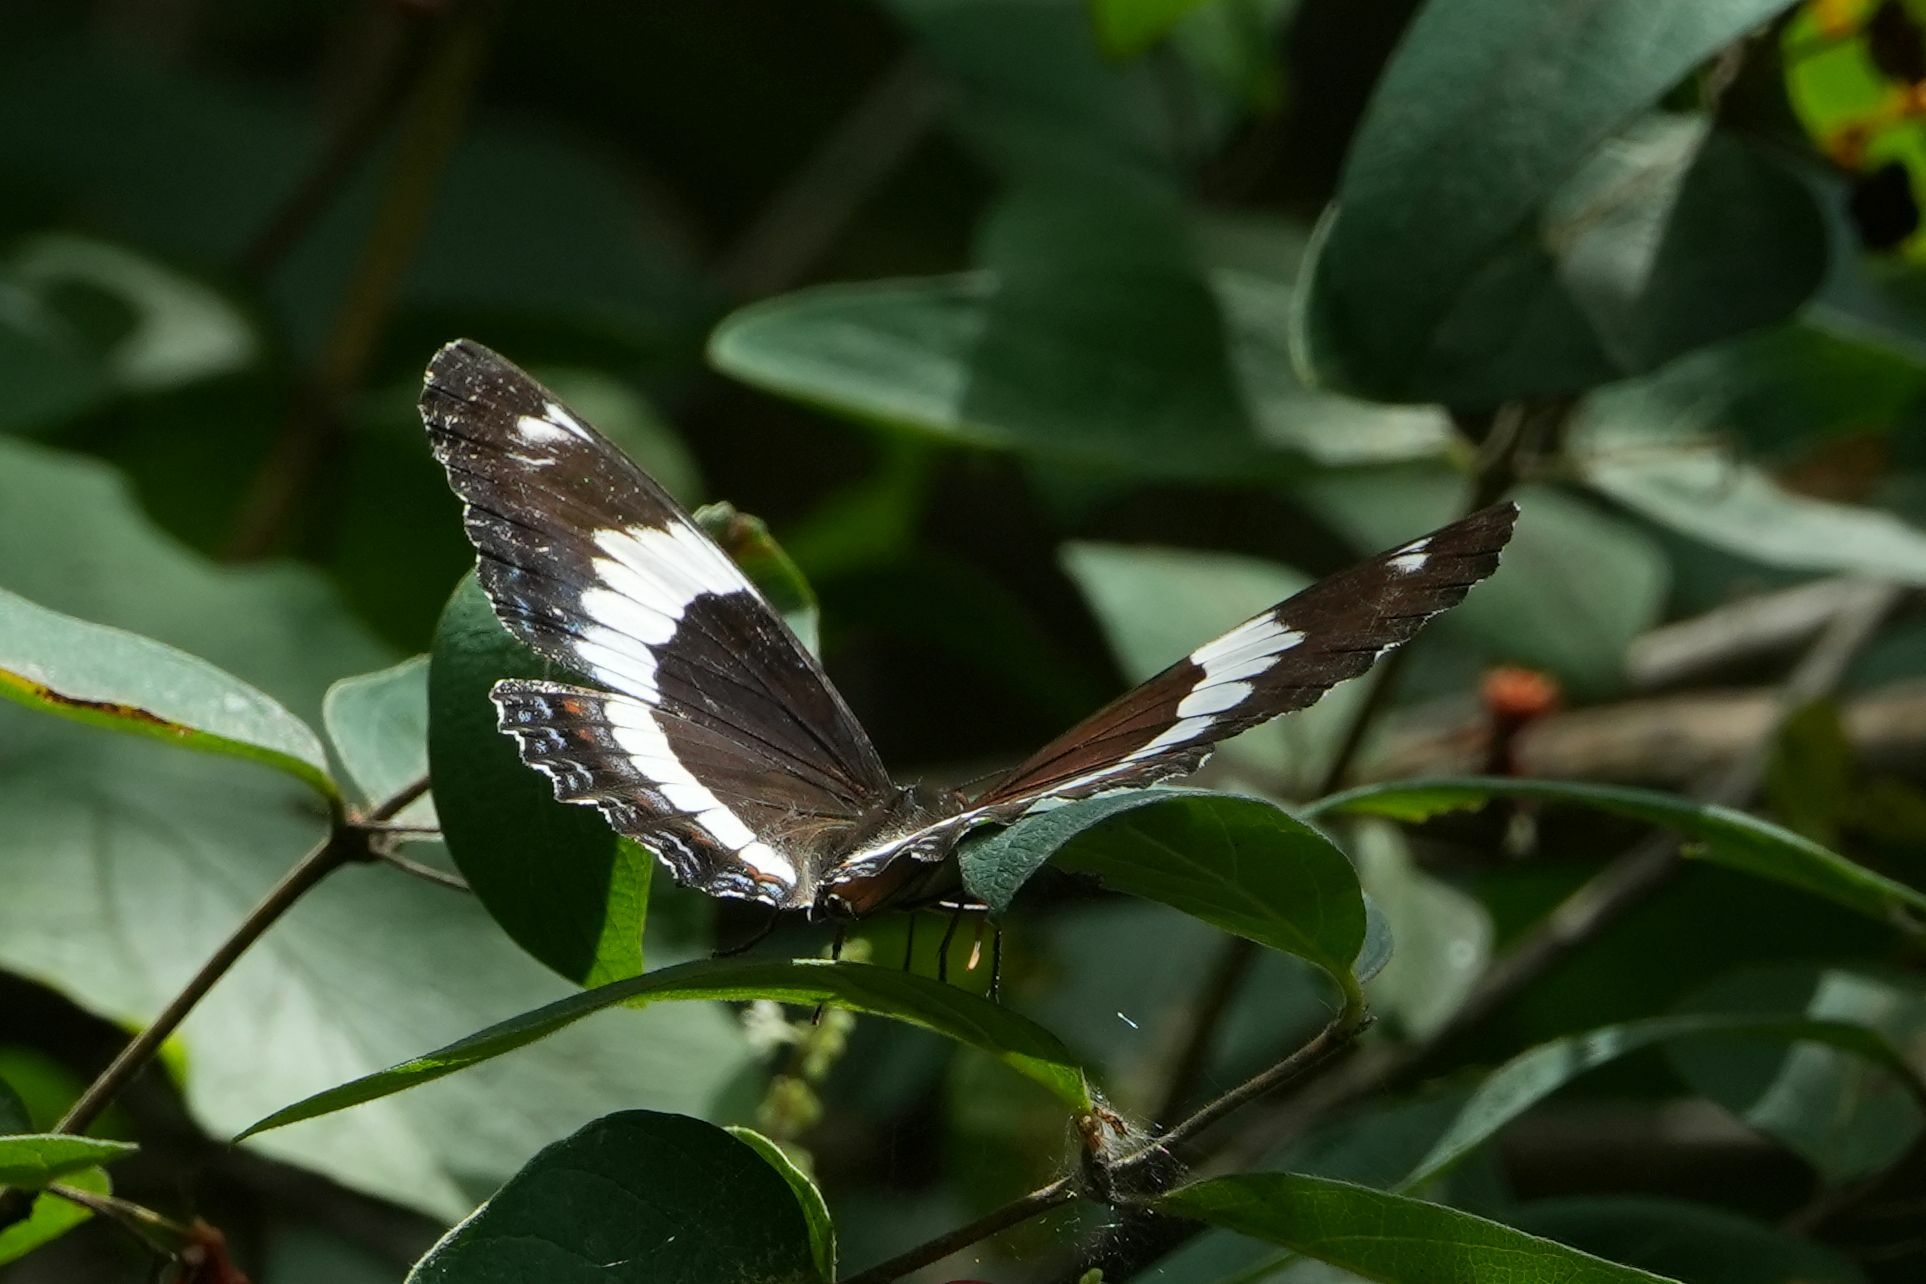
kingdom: Animalia
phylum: Arthropoda
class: Insecta
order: Lepidoptera
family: Nymphalidae
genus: Limenitis
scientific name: Limenitis arthemis
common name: Red-spotted admiral
